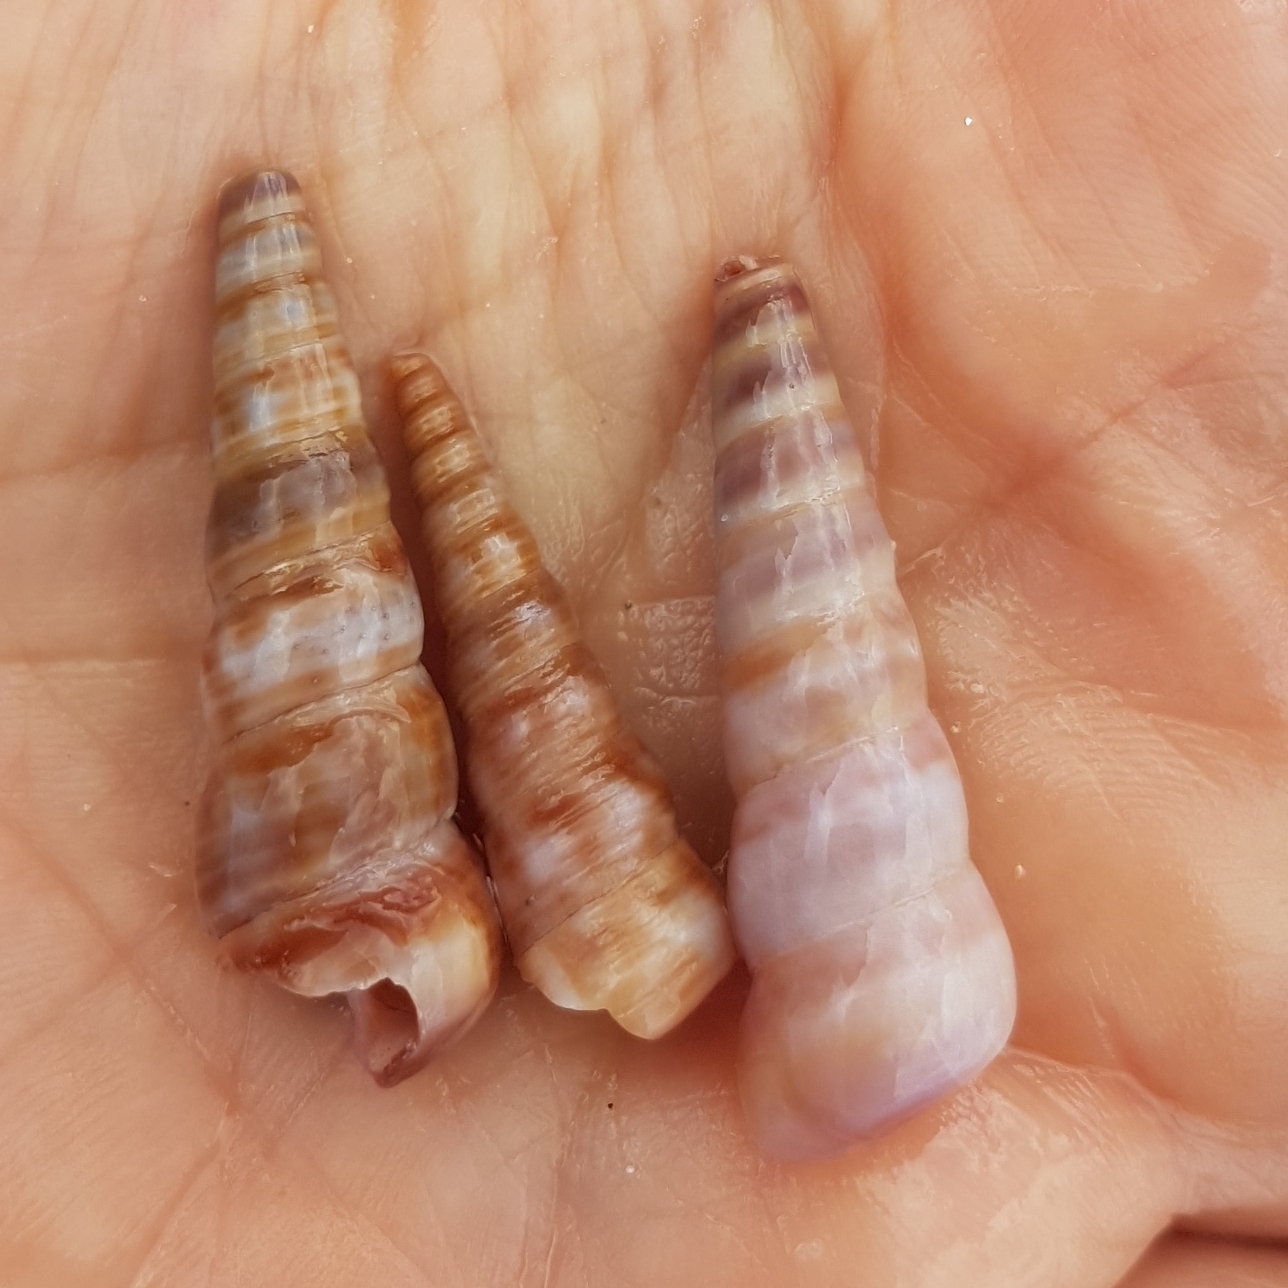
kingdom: Animalia
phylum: Mollusca
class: Gastropoda
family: Turritellidae
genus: Turritellinella
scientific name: Turritellinella tricarinata
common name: Auger shell
